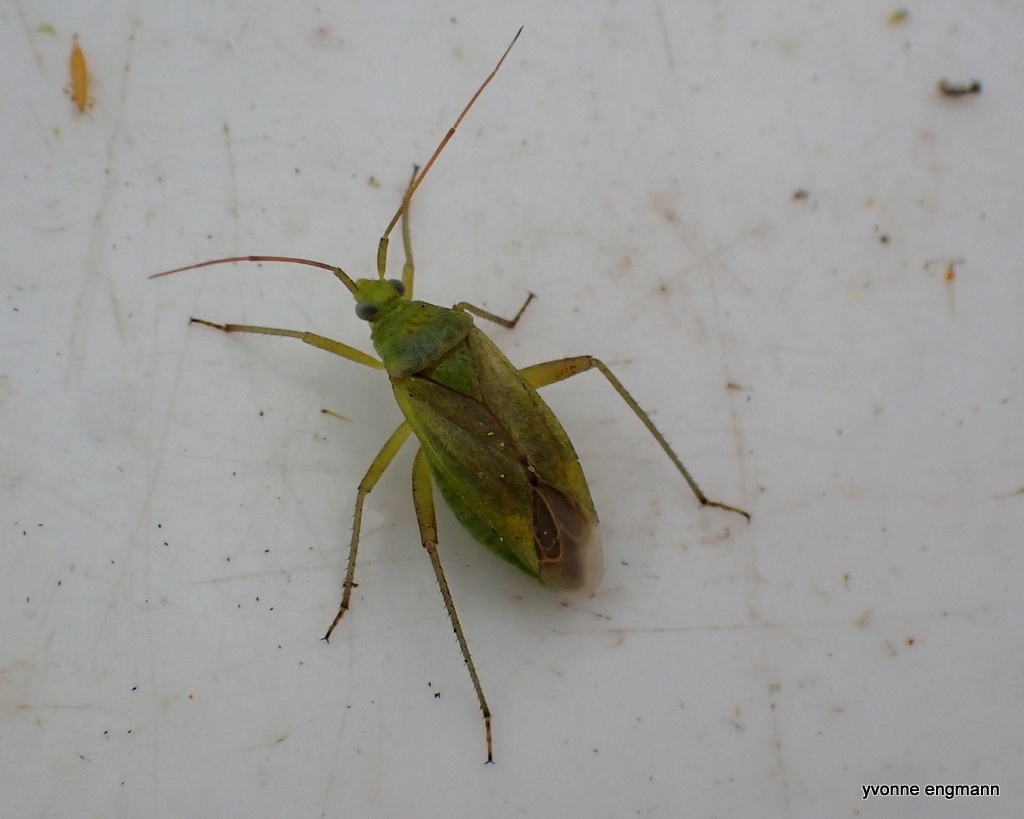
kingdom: Animalia
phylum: Arthropoda
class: Insecta
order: Hemiptera
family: Miridae
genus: Closterotomus
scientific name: Closterotomus norvegicus
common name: Plant bug
